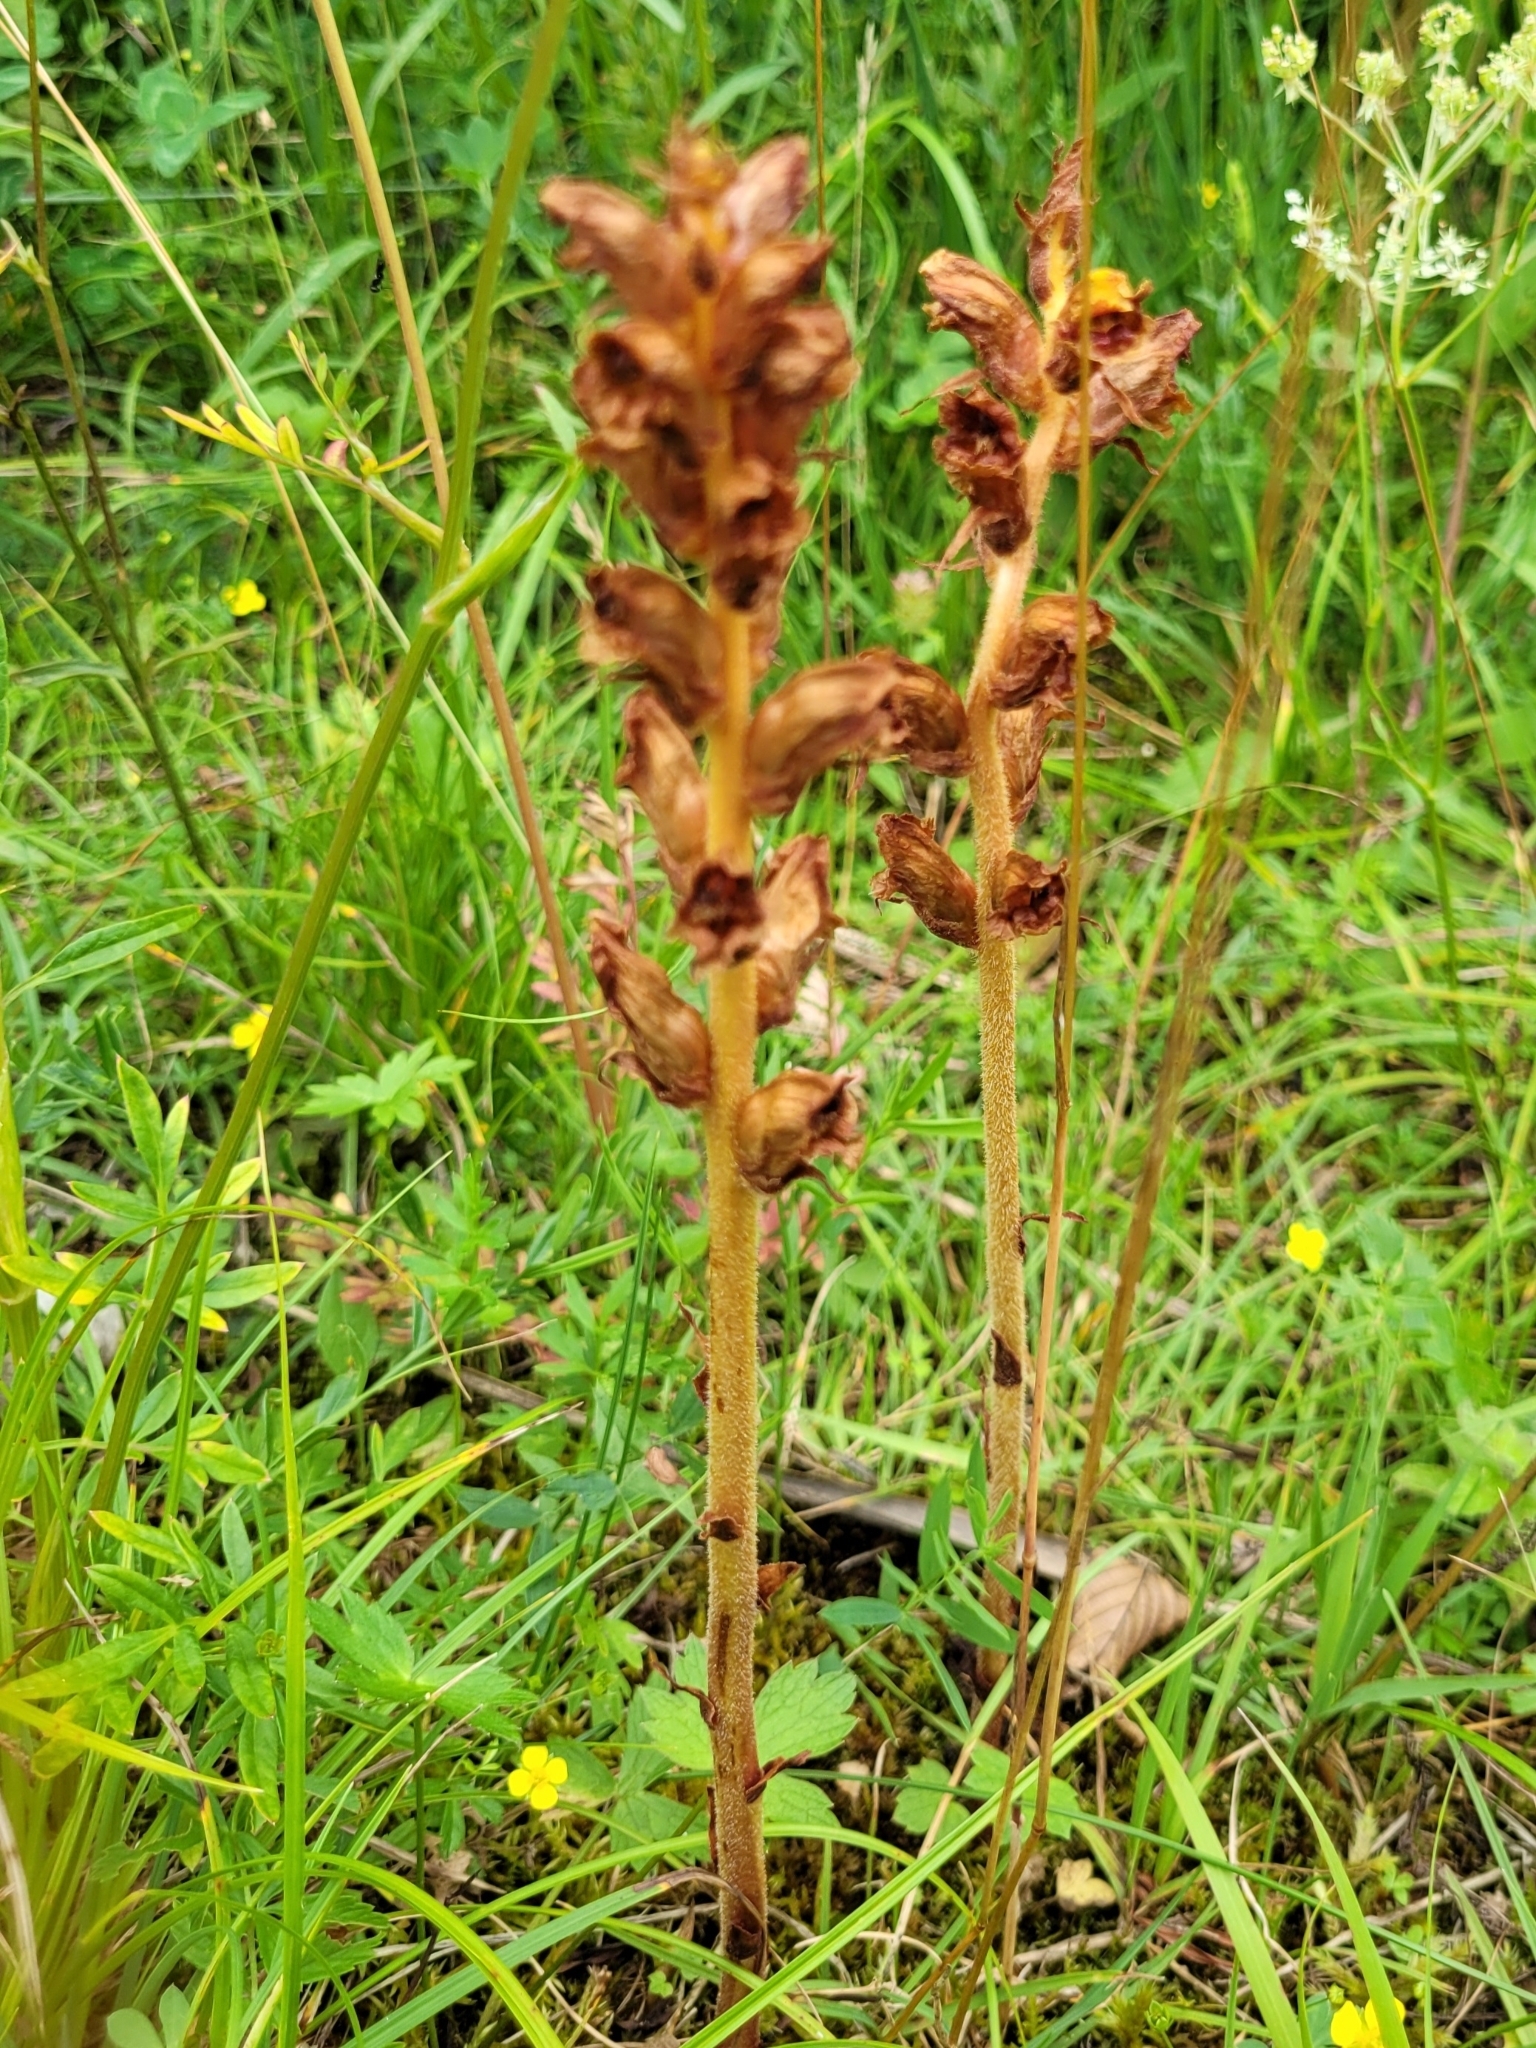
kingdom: Plantae
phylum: Tracheophyta
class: Magnoliopsida
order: Lamiales
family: Orobanchaceae
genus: Orobanche
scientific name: Orobanche gracilis
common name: Slender broomrape
